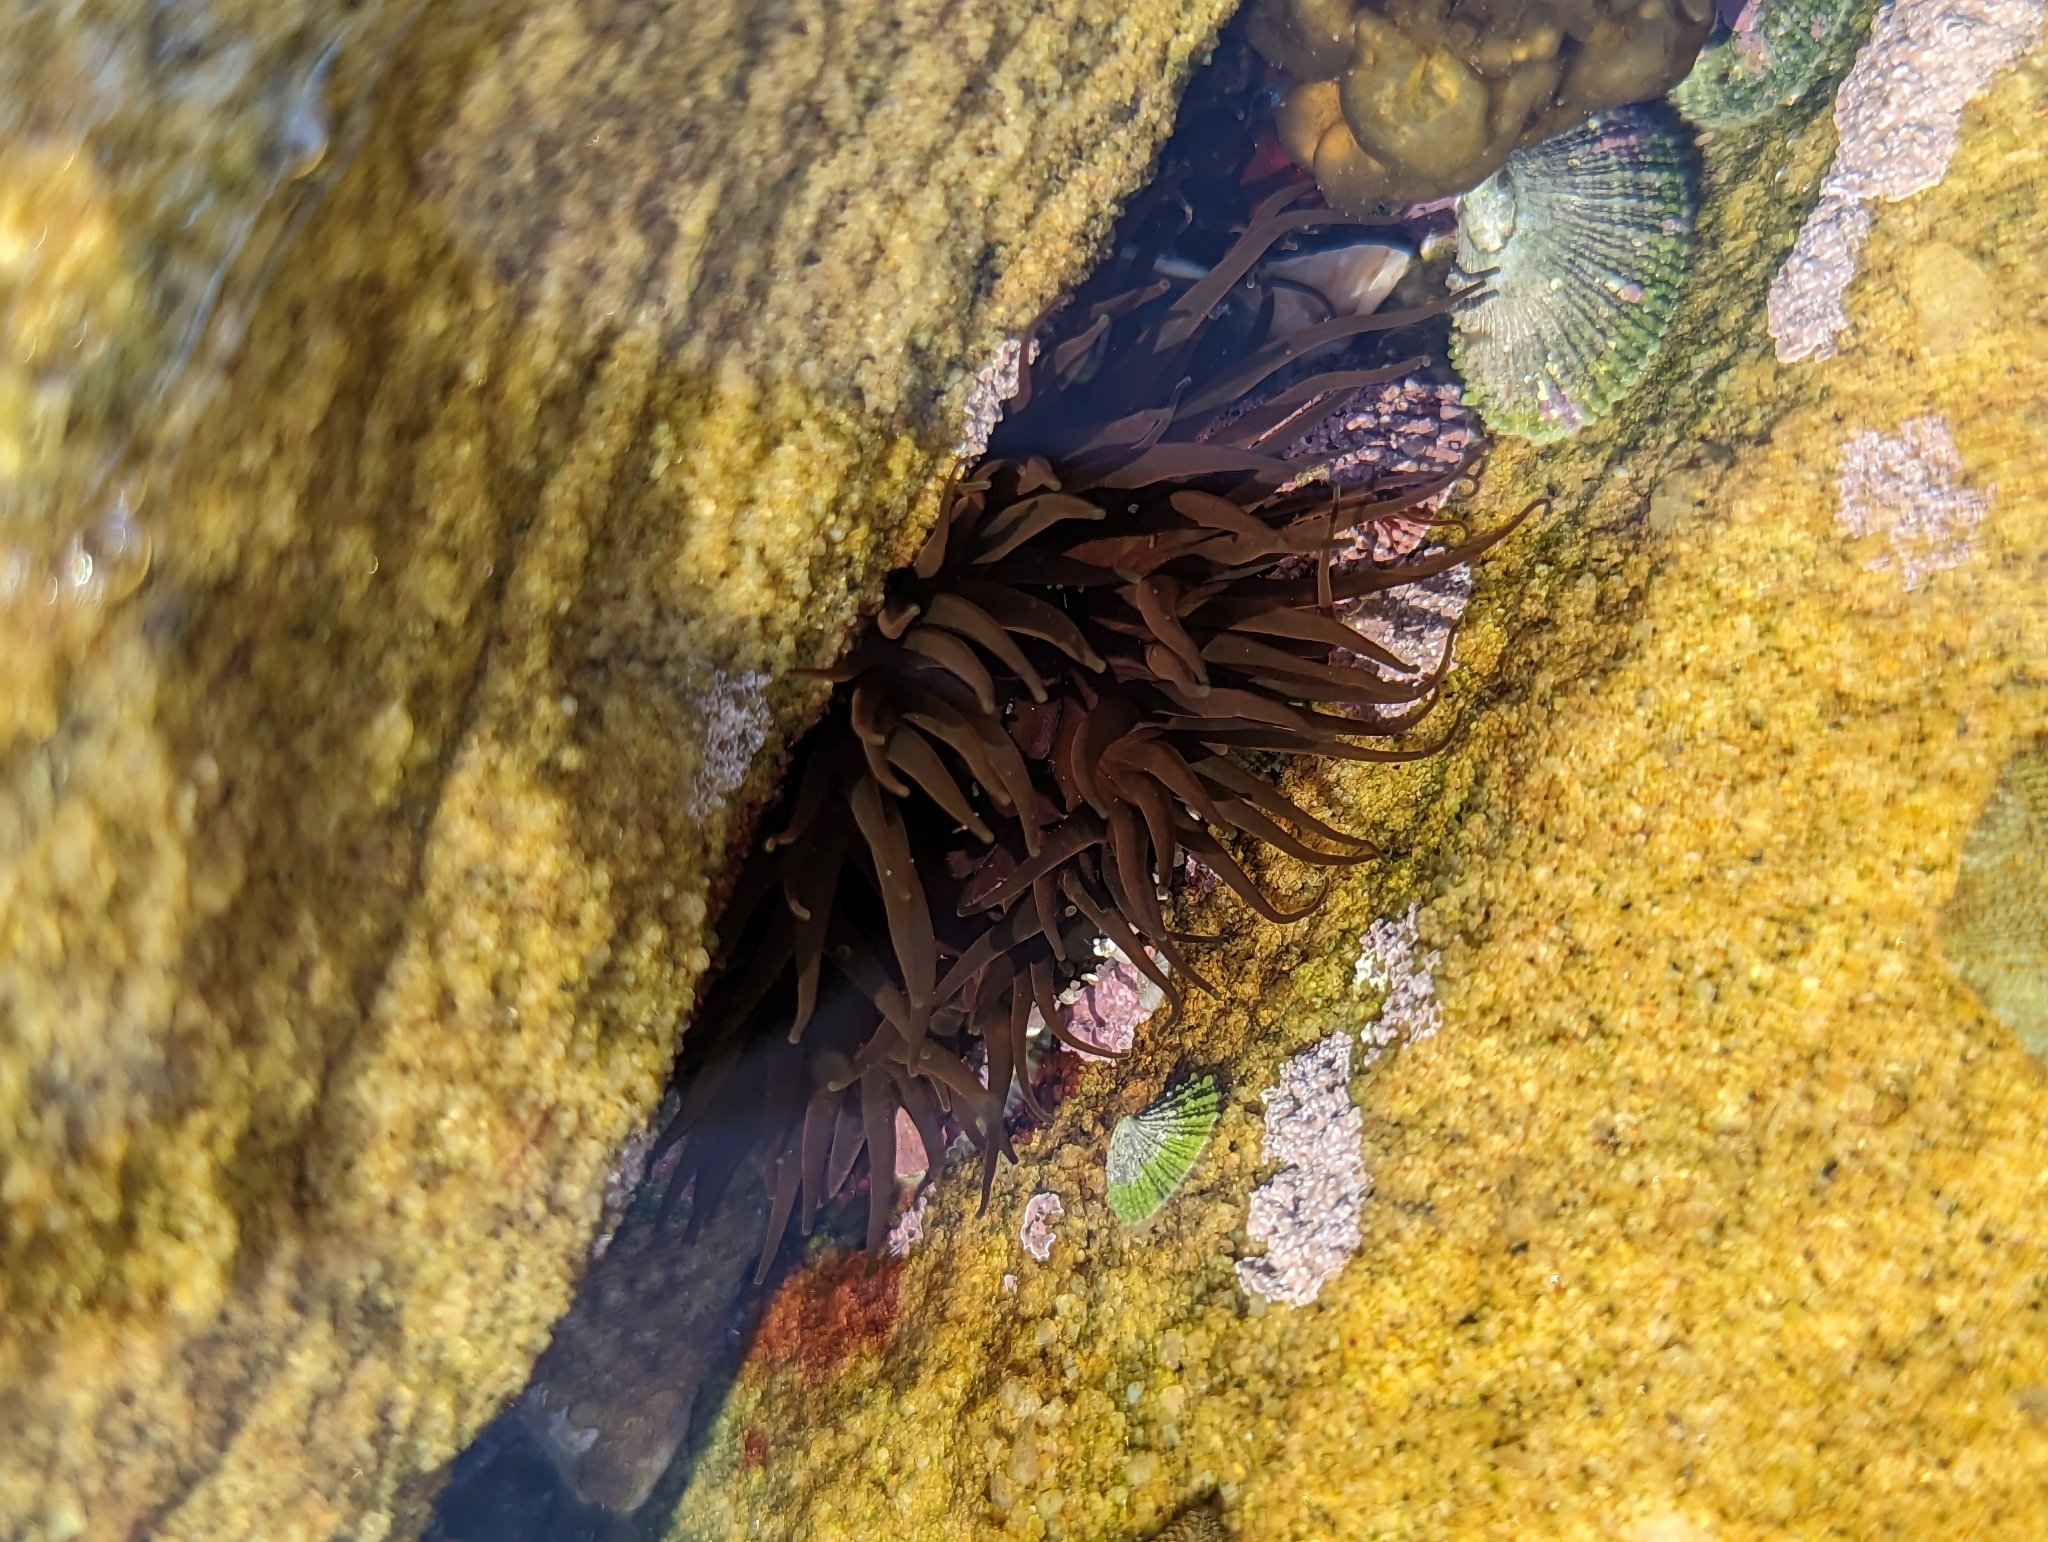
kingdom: Animalia
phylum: Cnidaria
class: Anthozoa
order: Actiniaria
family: Actiniidae
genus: Aulactinia
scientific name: Aulactinia veratra
